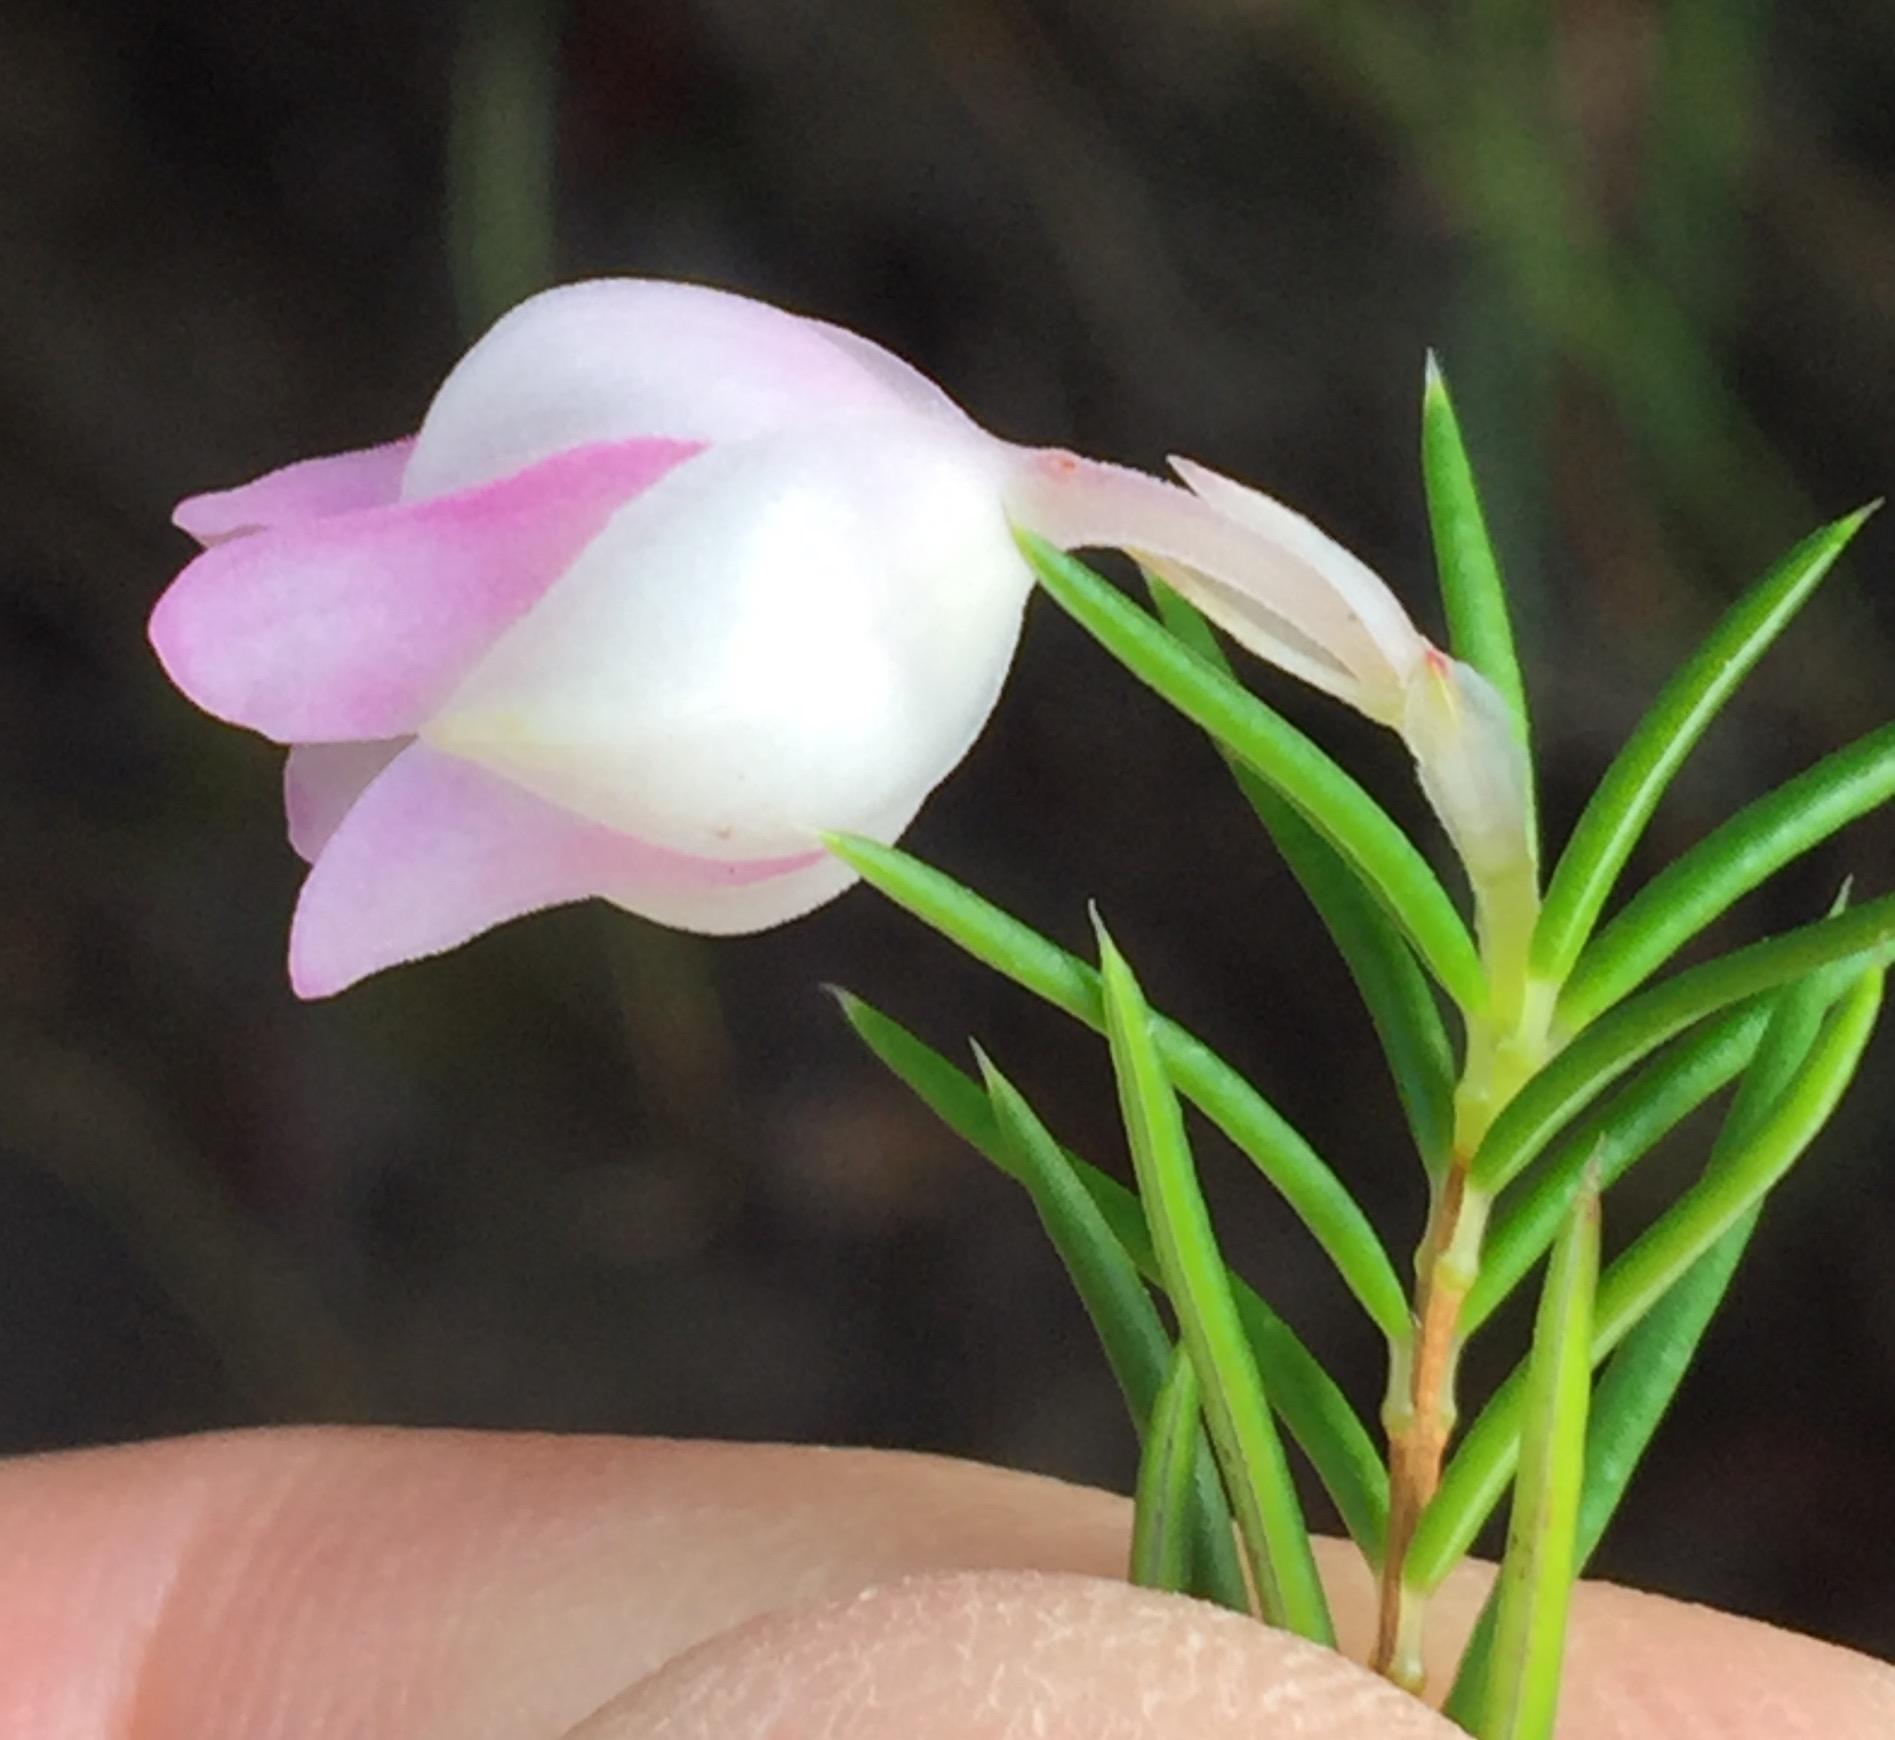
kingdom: Plantae
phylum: Tracheophyta
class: Magnoliopsida
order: Ericales
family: Ericaceae
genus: Erica
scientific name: Erica holosericea
